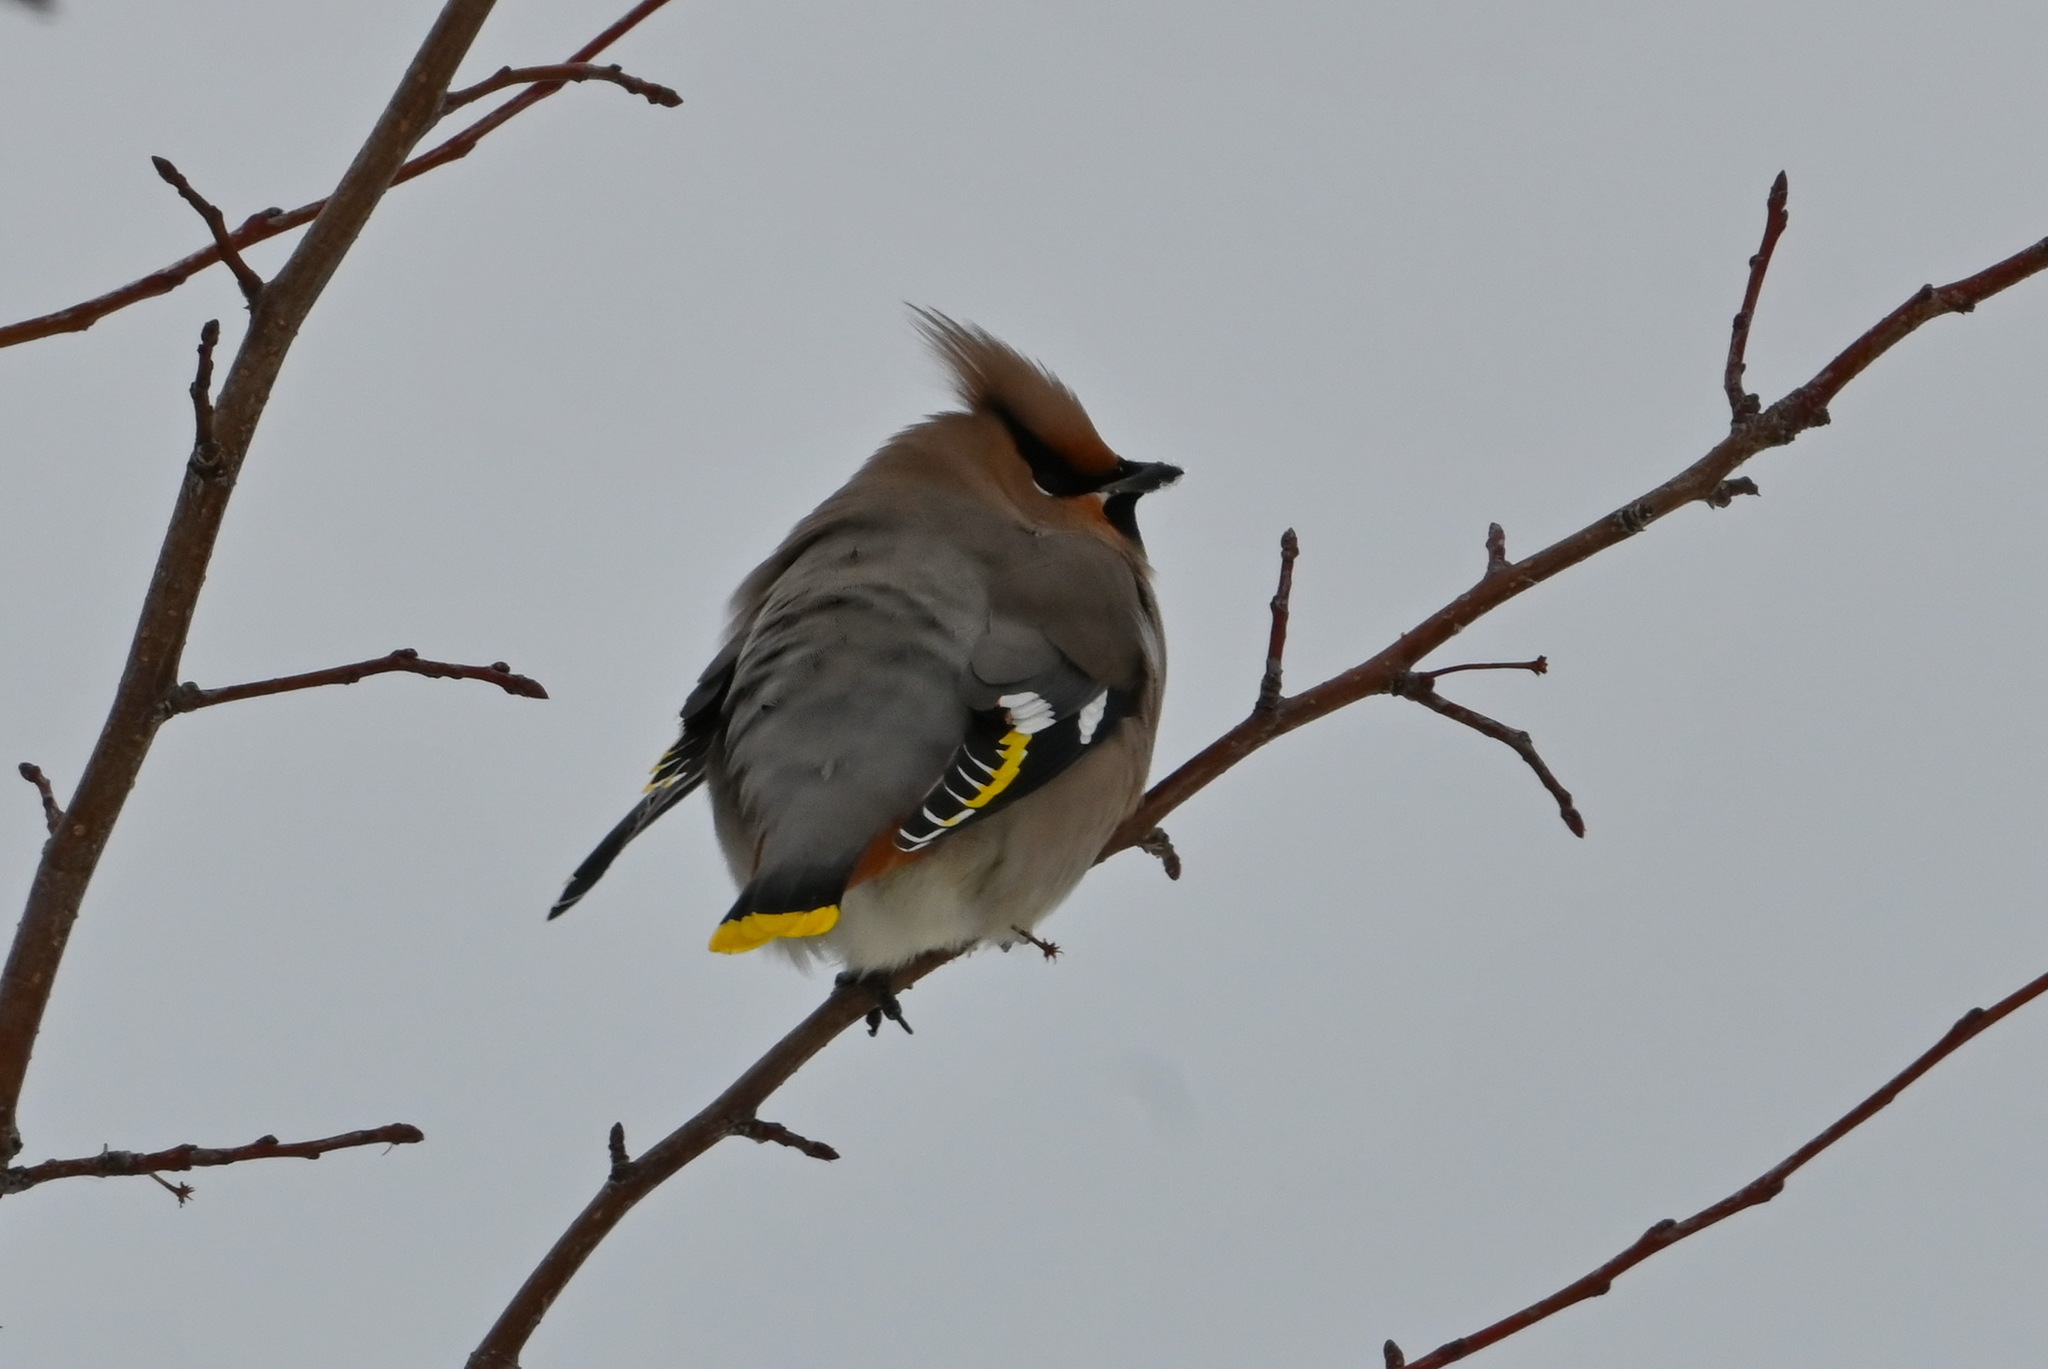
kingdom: Animalia
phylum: Chordata
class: Aves
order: Passeriformes
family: Bombycillidae
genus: Bombycilla
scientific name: Bombycilla garrulus
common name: Bohemian waxwing
